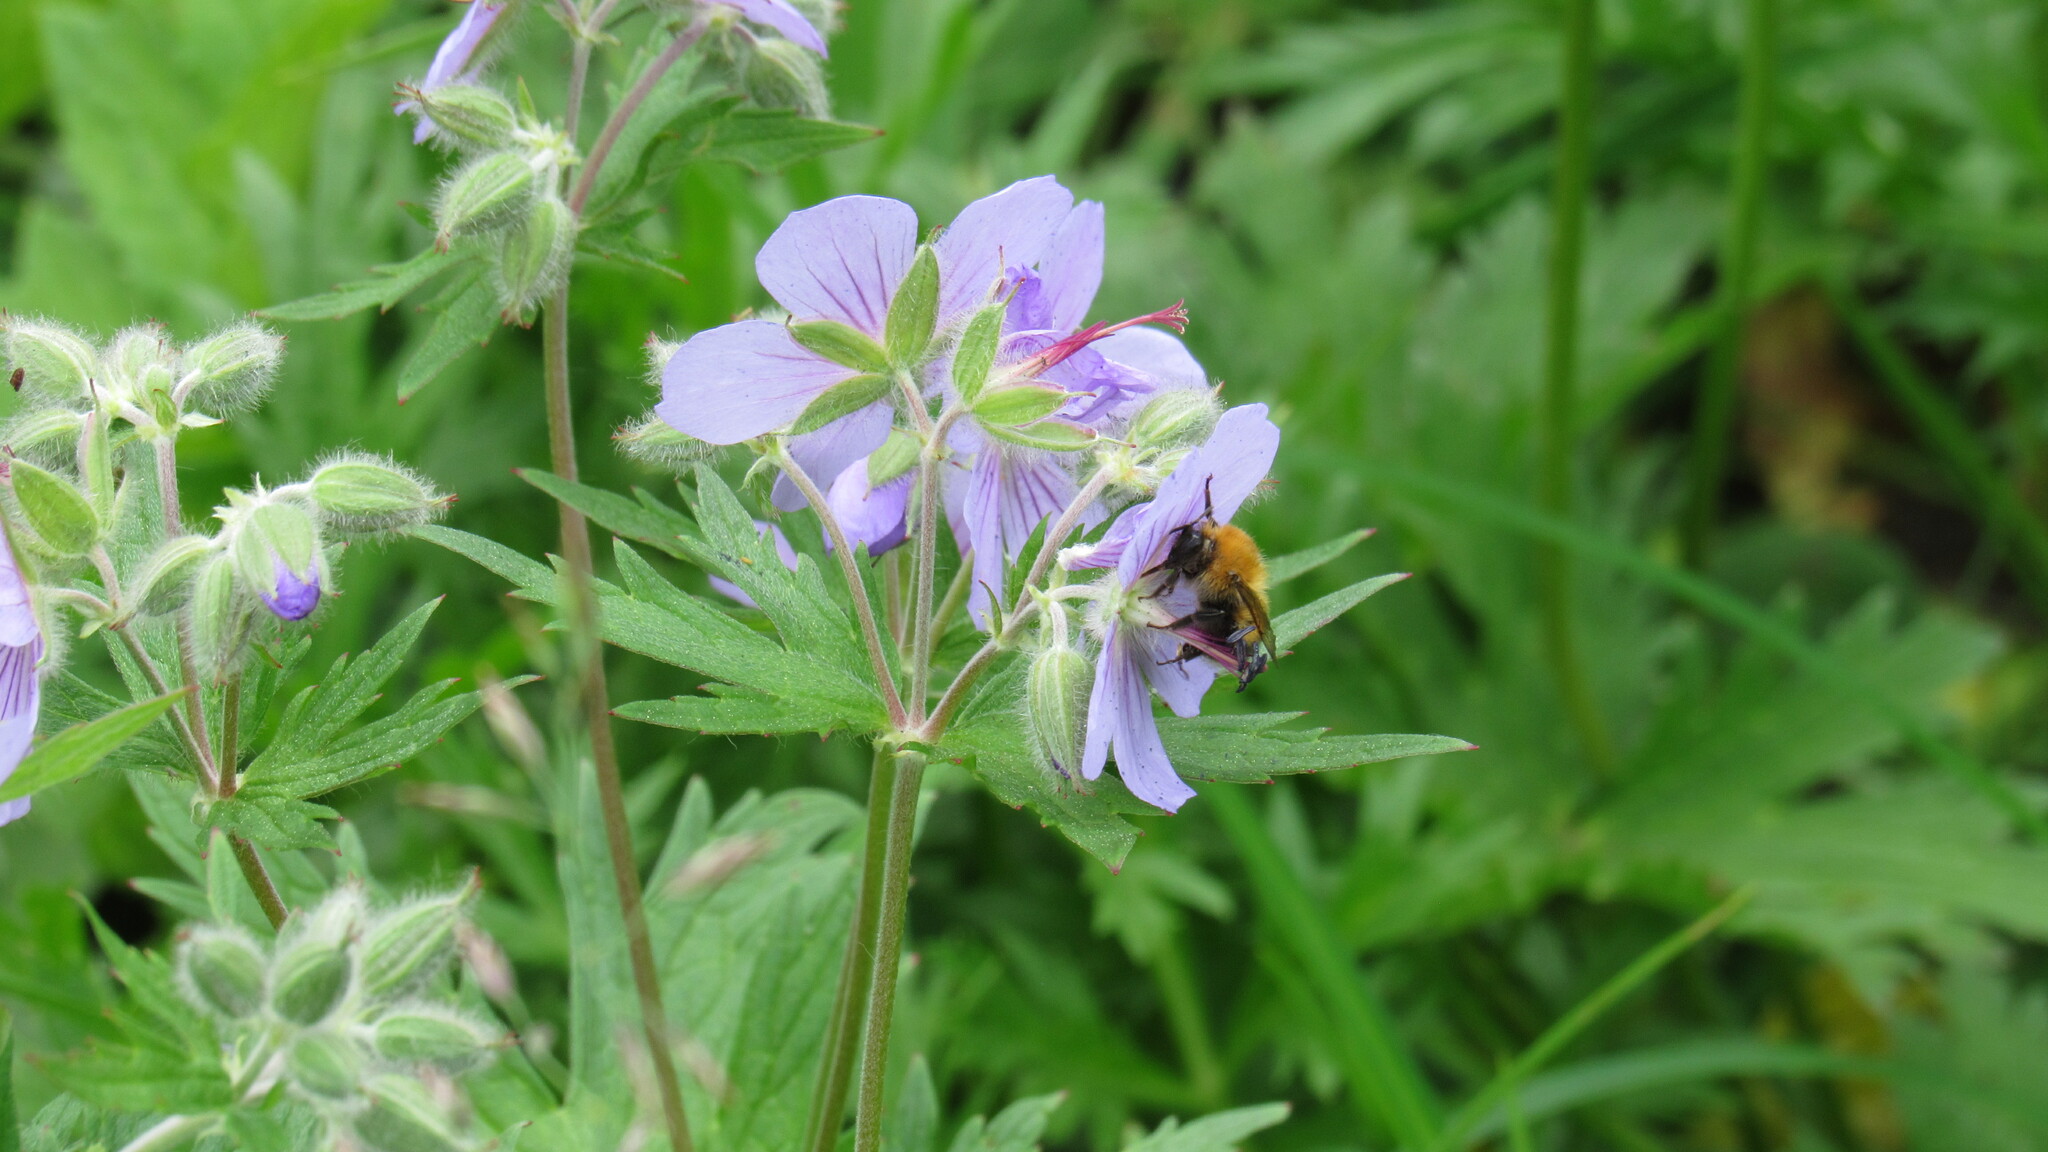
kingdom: Animalia
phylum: Arthropoda
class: Insecta
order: Hymenoptera
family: Apidae
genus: Bombus
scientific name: Bombus hypnorum
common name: New garden bumblebee
